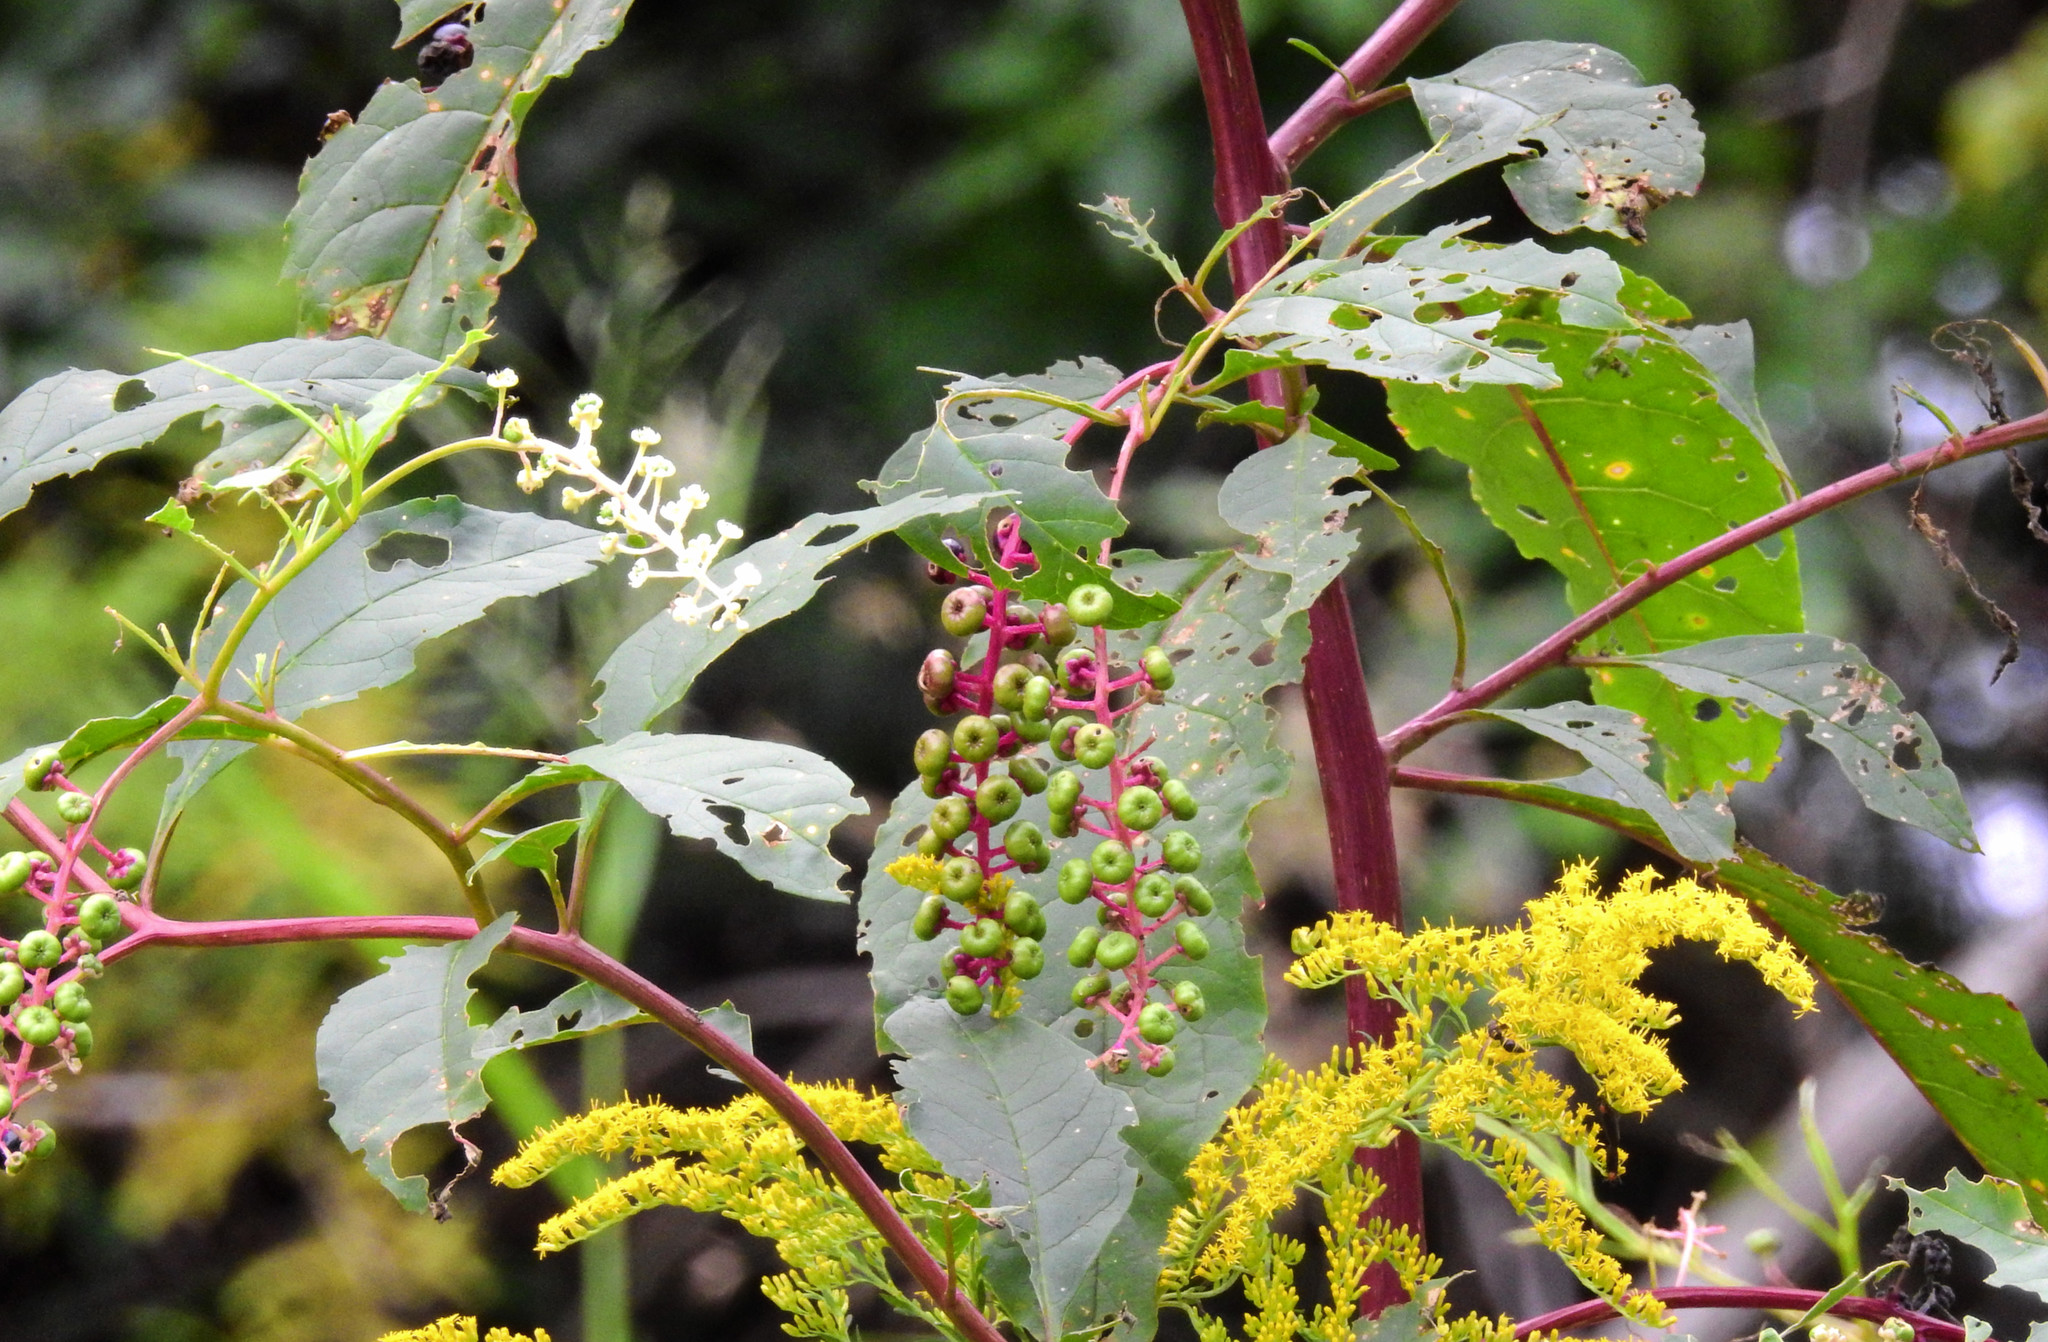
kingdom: Plantae
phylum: Tracheophyta
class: Magnoliopsida
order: Caryophyllales
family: Phytolaccaceae
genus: Phytolacca
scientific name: Phytolacca americana
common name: American pokeweed
